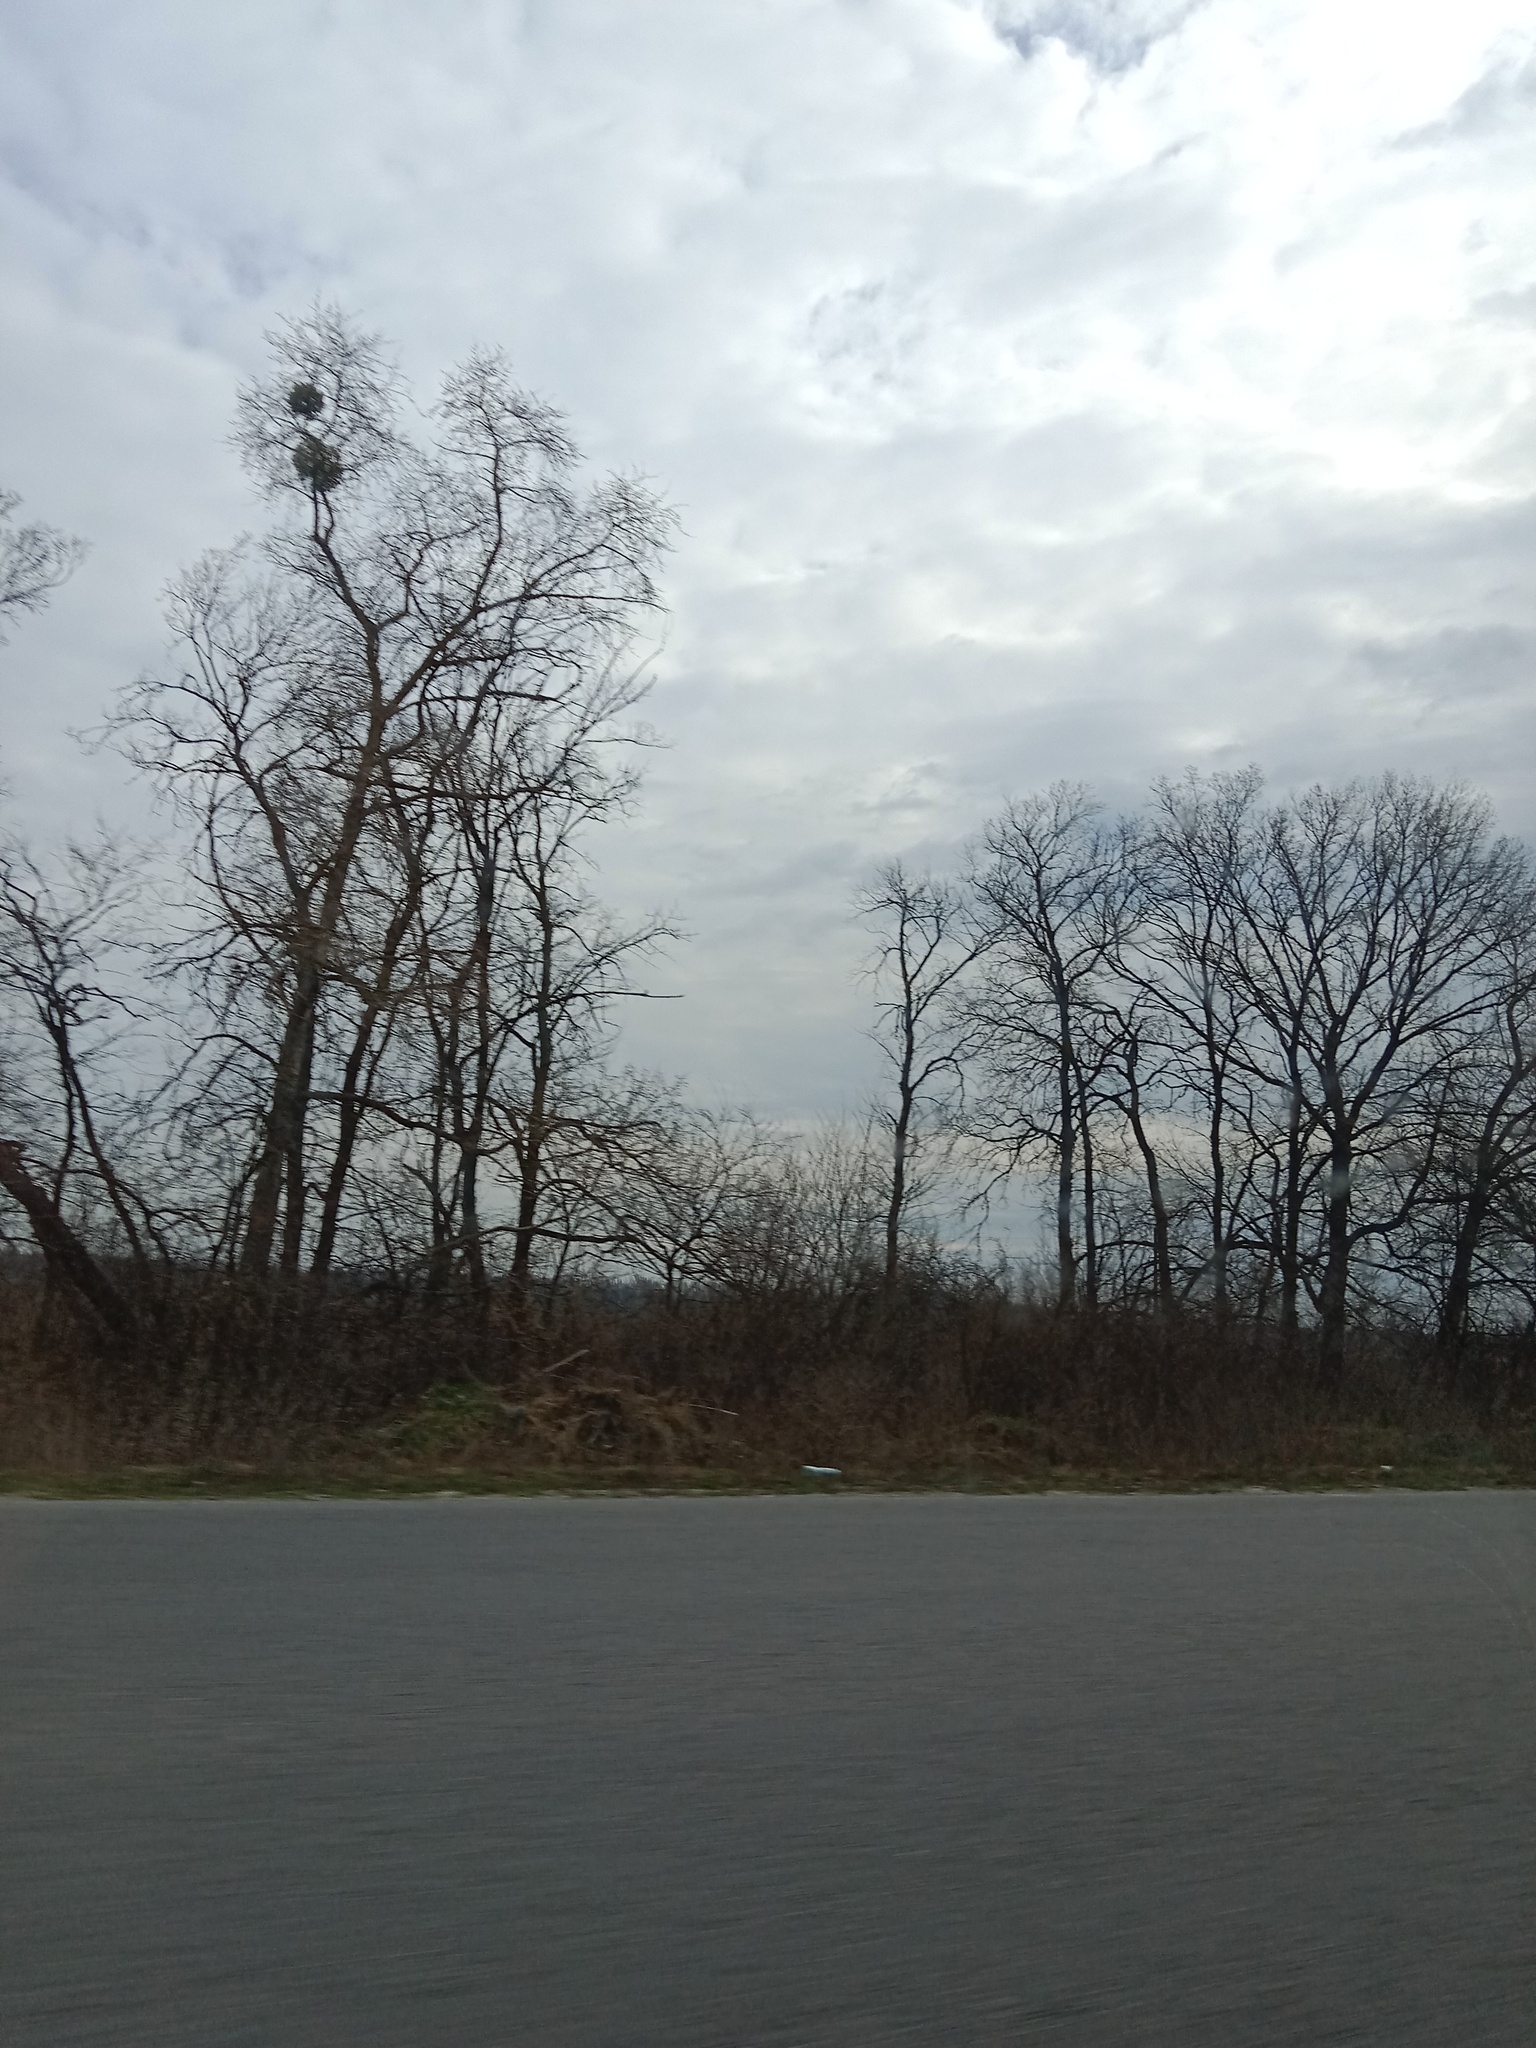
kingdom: Plantae
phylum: Tracheophyta
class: Magnoliopsida
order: Santalales
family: Viscaceae
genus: Viscum
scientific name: Viscum album
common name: Mistletoe
